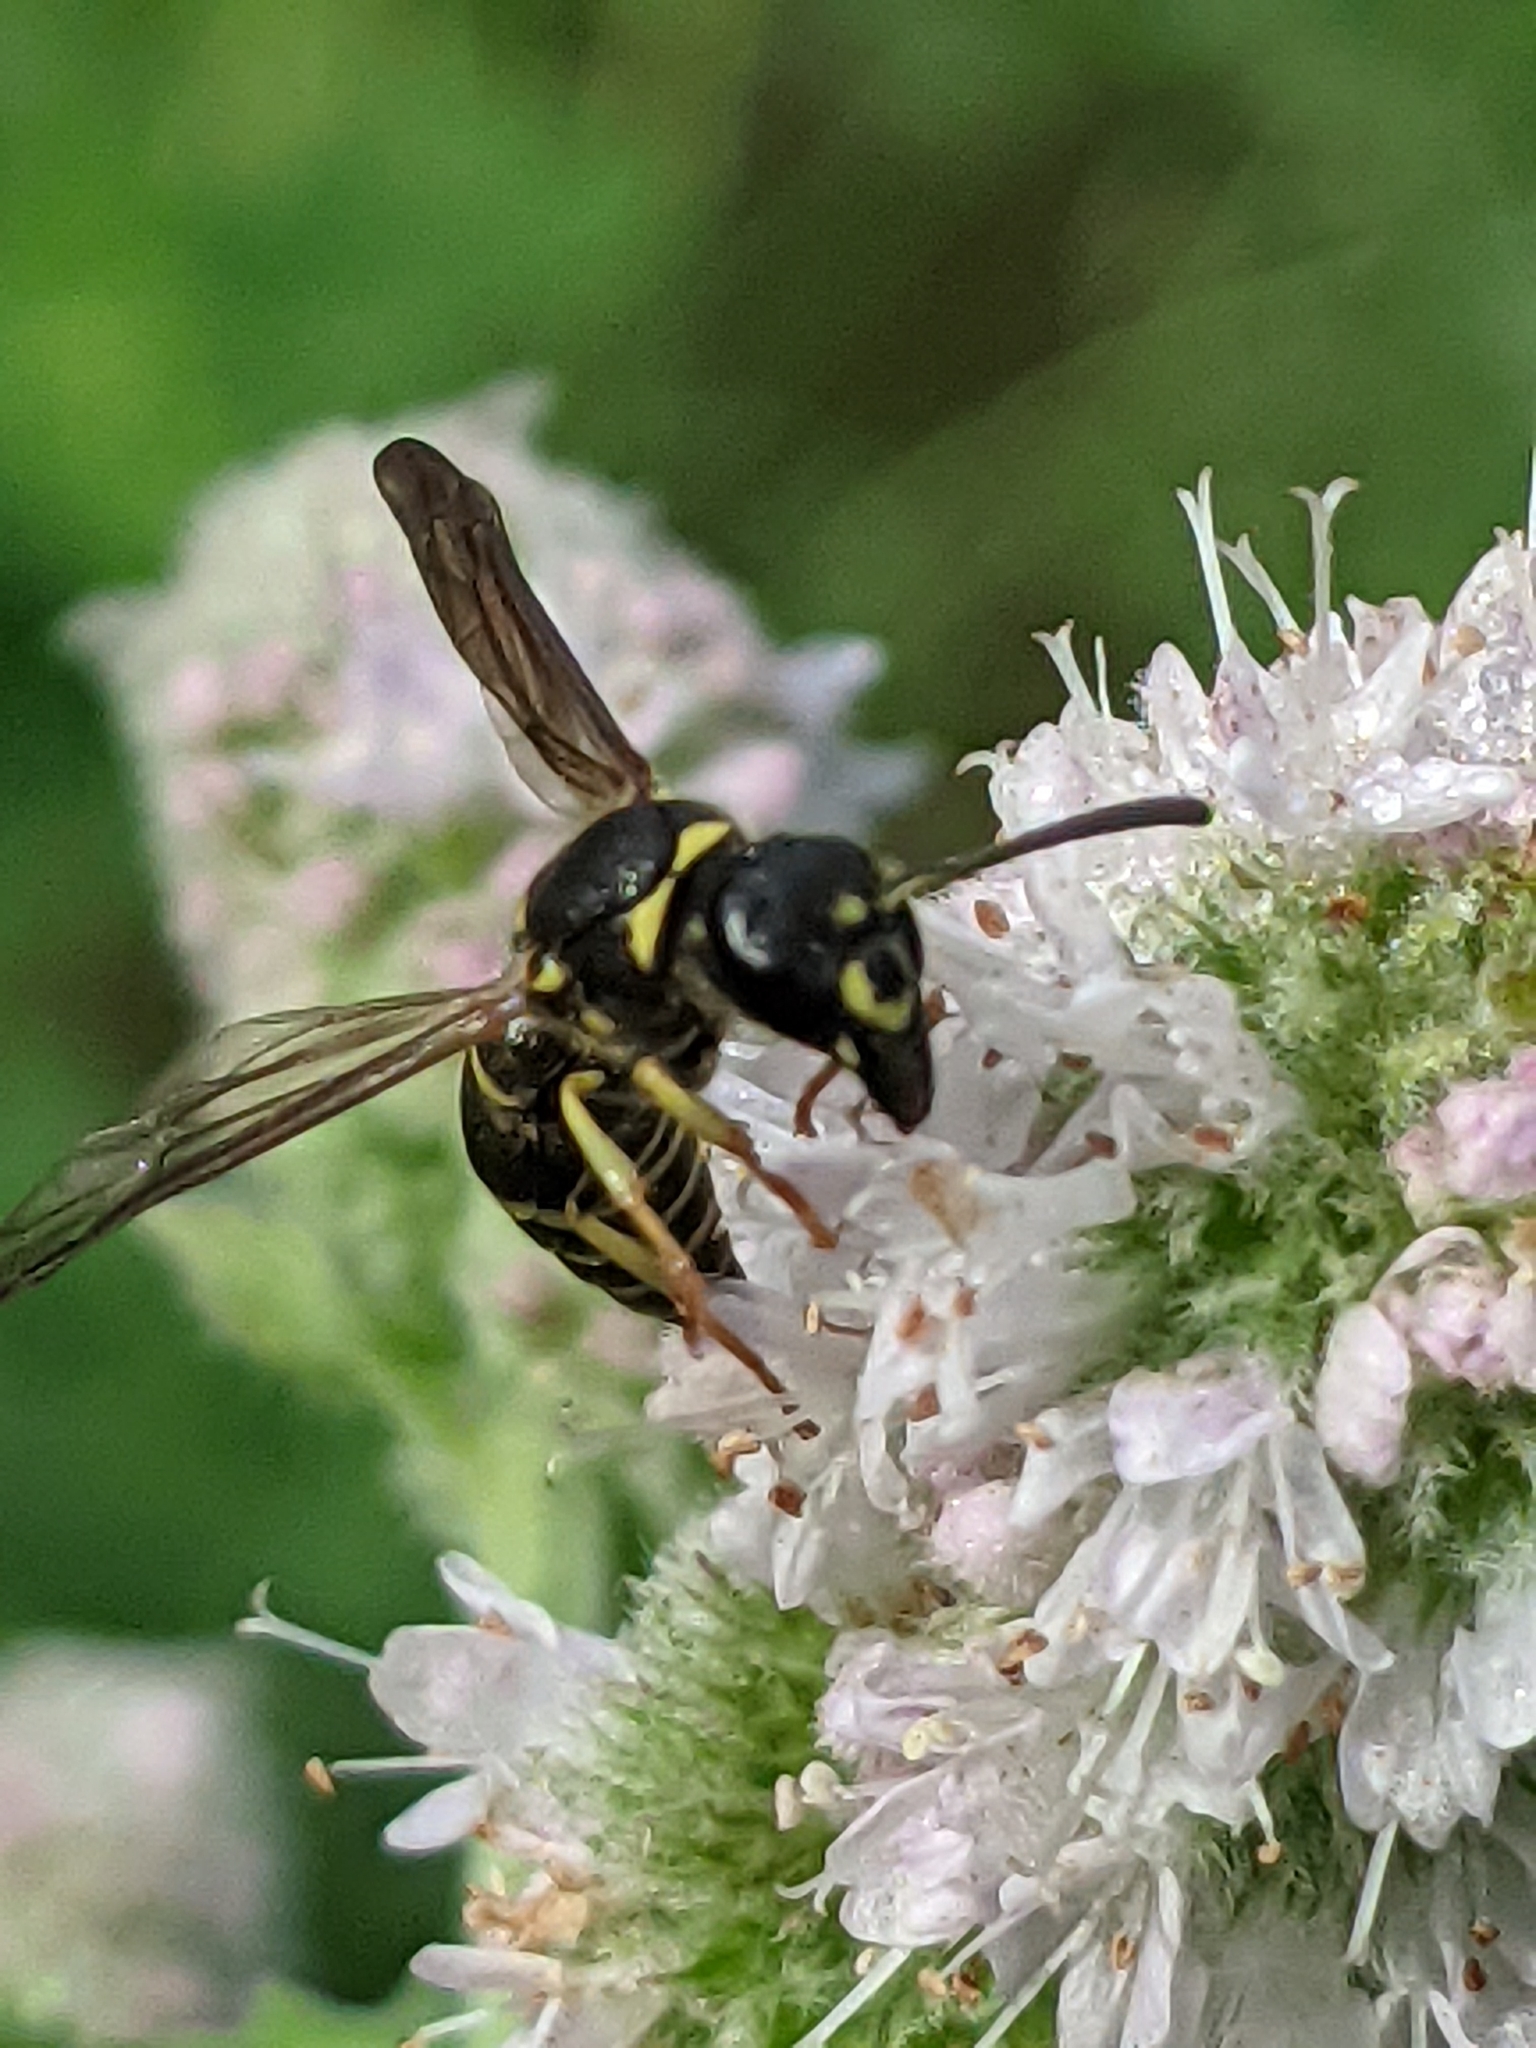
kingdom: Animalia
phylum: Arthropoda
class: Insecta
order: Hymenoptera
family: Vespidae
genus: Ancistrocerus
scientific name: Ancistrocerus adiabatus
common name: Bramble mason wasp
